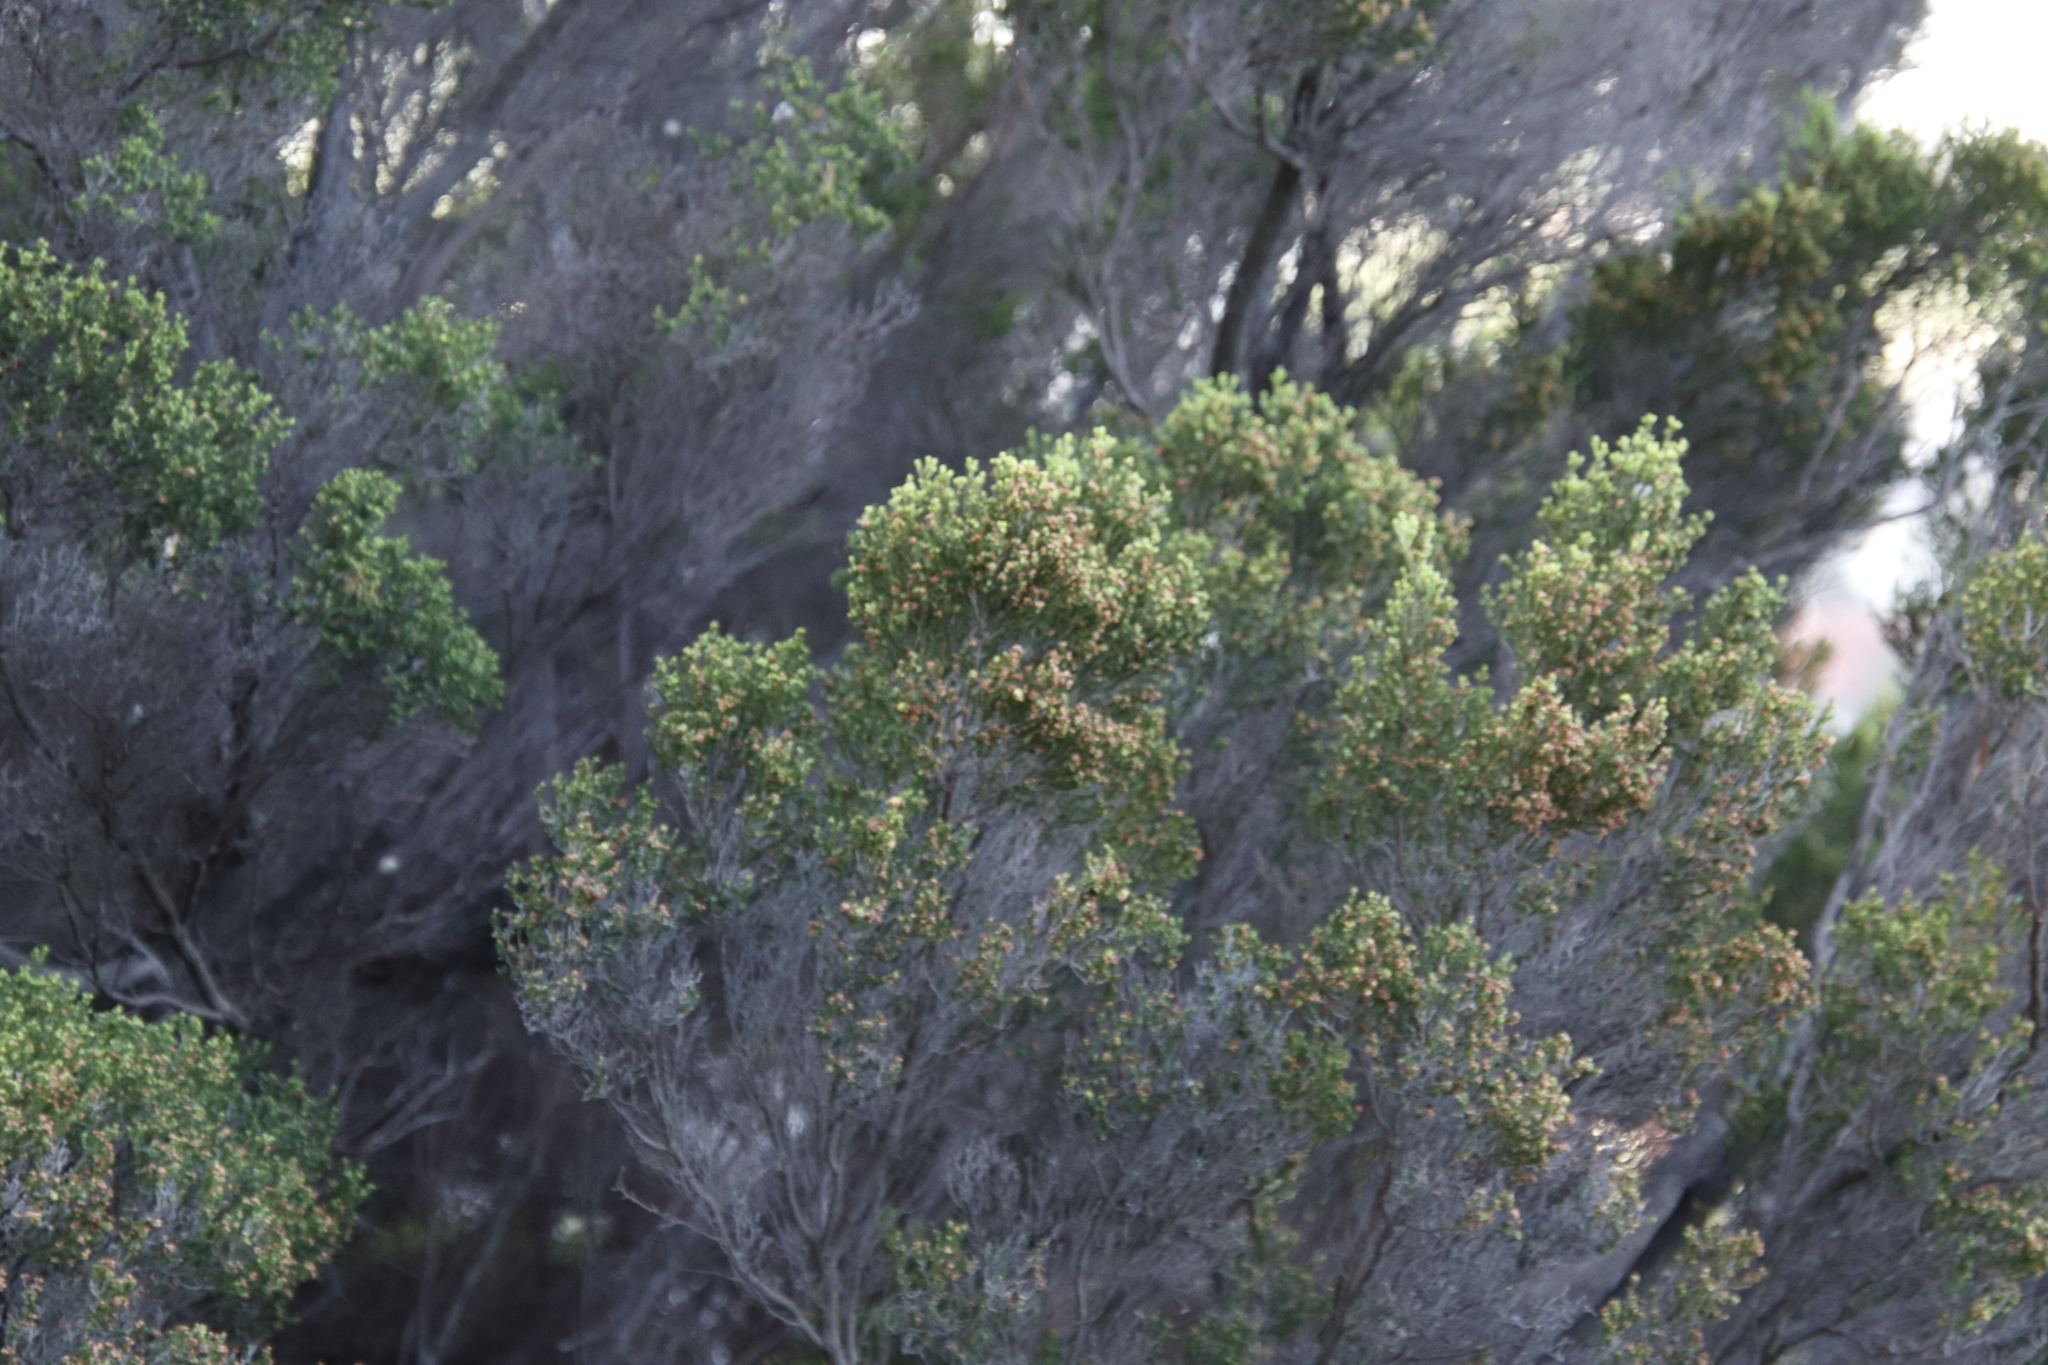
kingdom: Plantae
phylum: Tracheophyta
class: Magnoliopsida
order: Ericales
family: Ericaceae
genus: Erica
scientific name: Erica tristis
